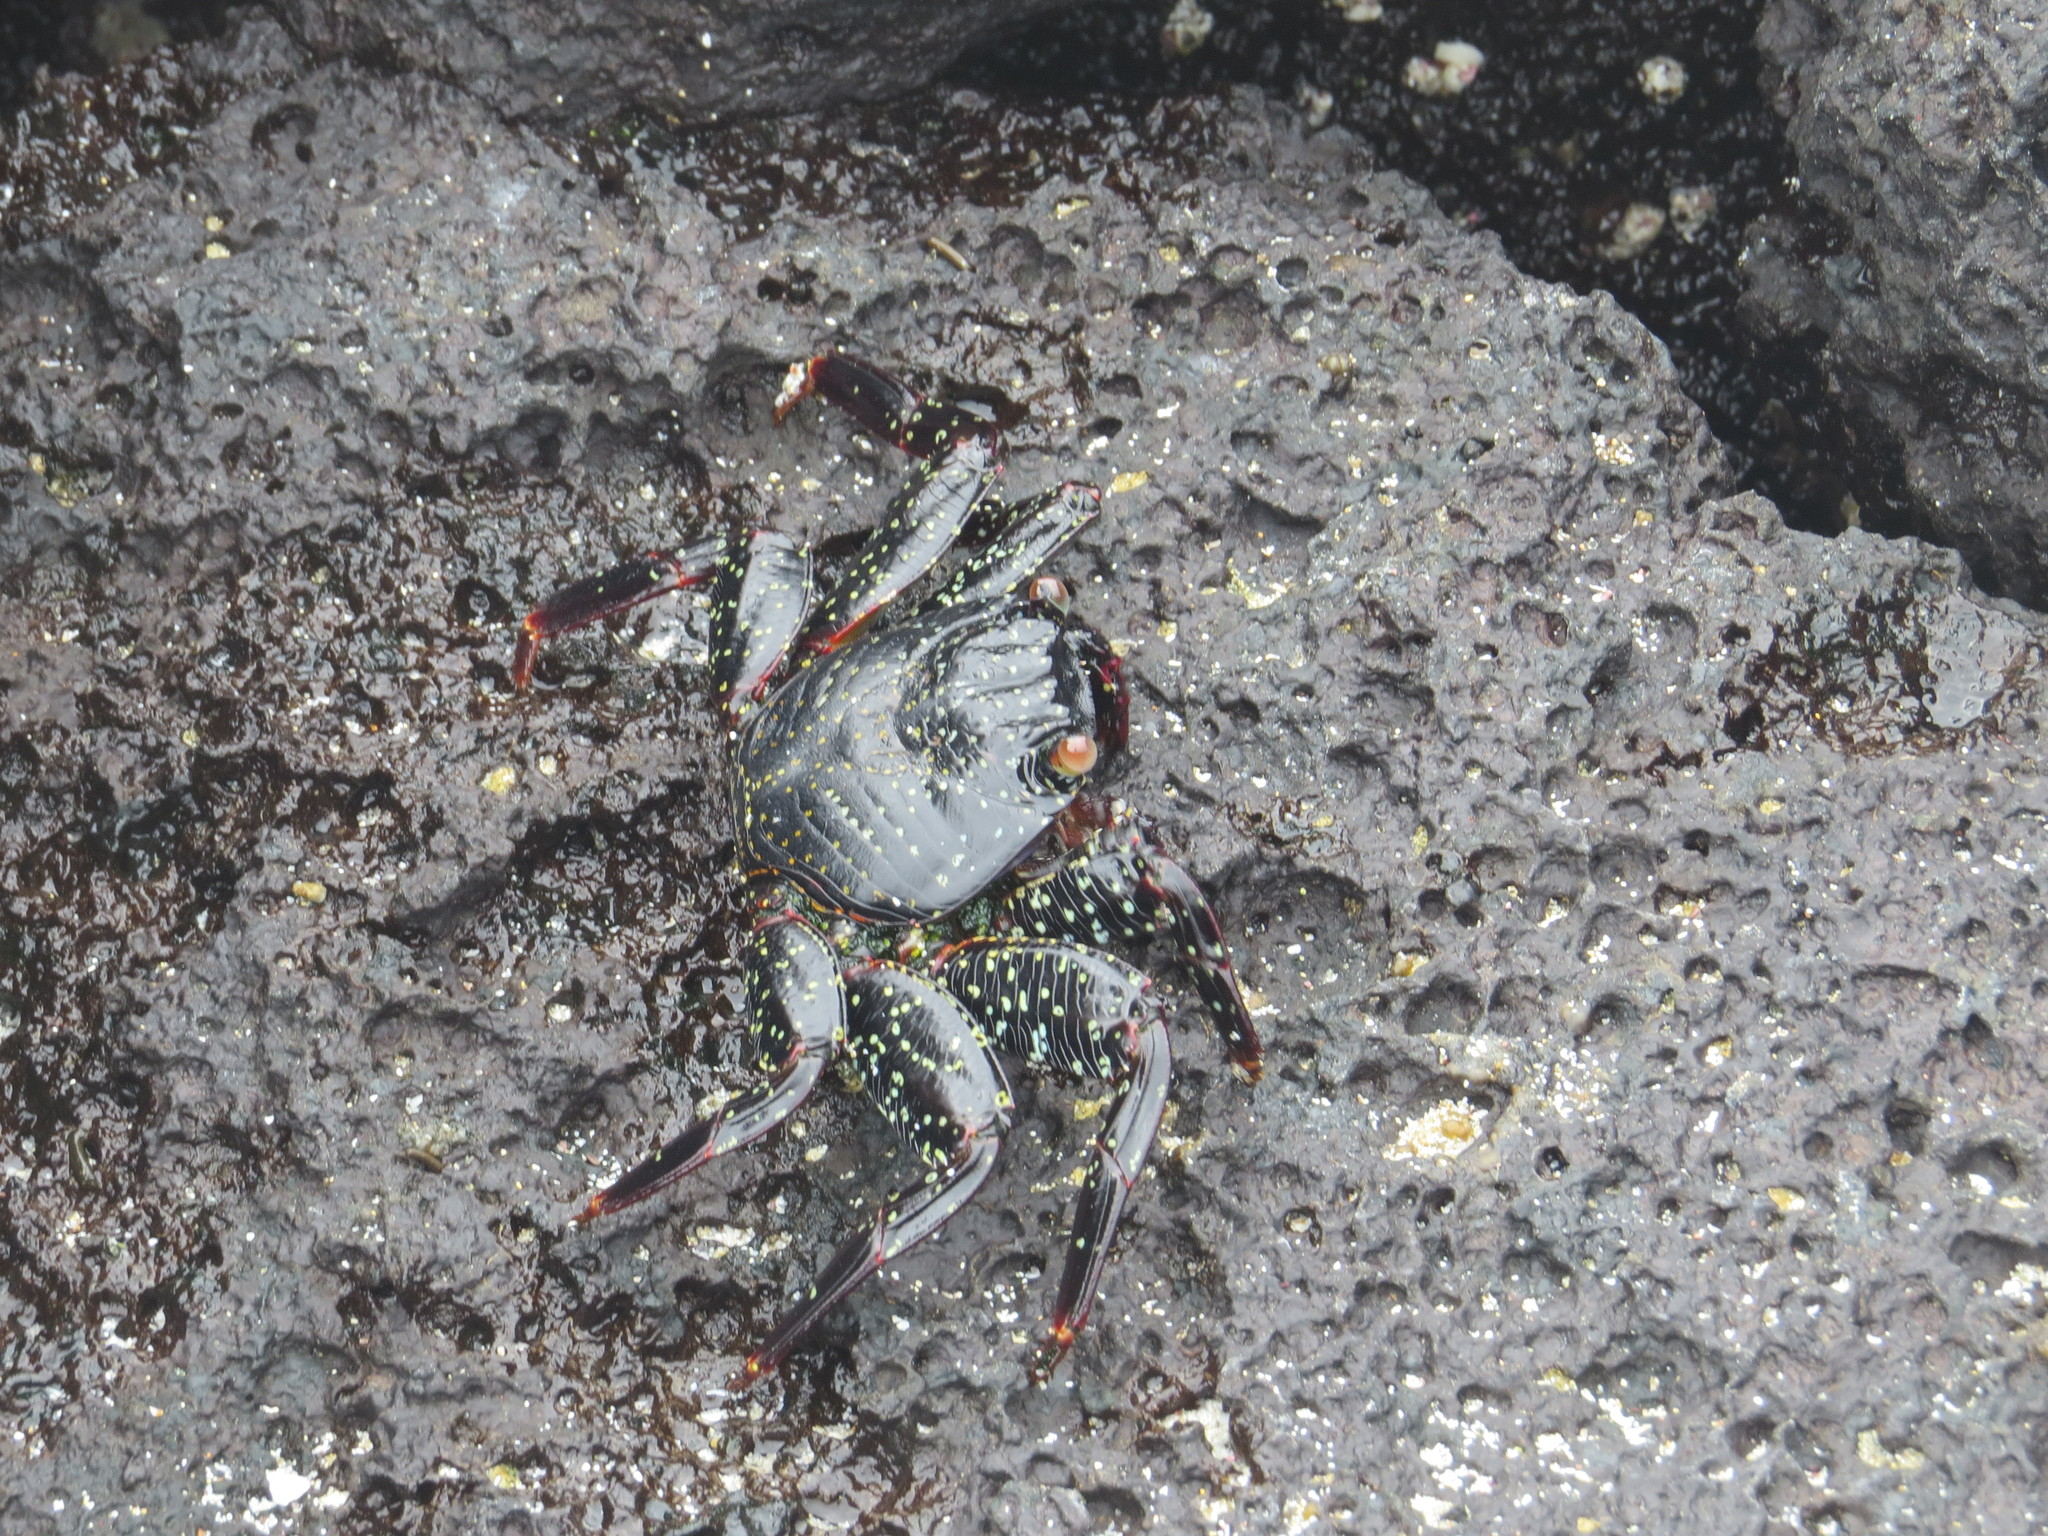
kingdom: Animalia
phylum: Arthropoda
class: Malacostraca
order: Decapoda
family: Grapsidae
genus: Grapsus
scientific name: Grapsus grapsus
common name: Sally lightfoot
